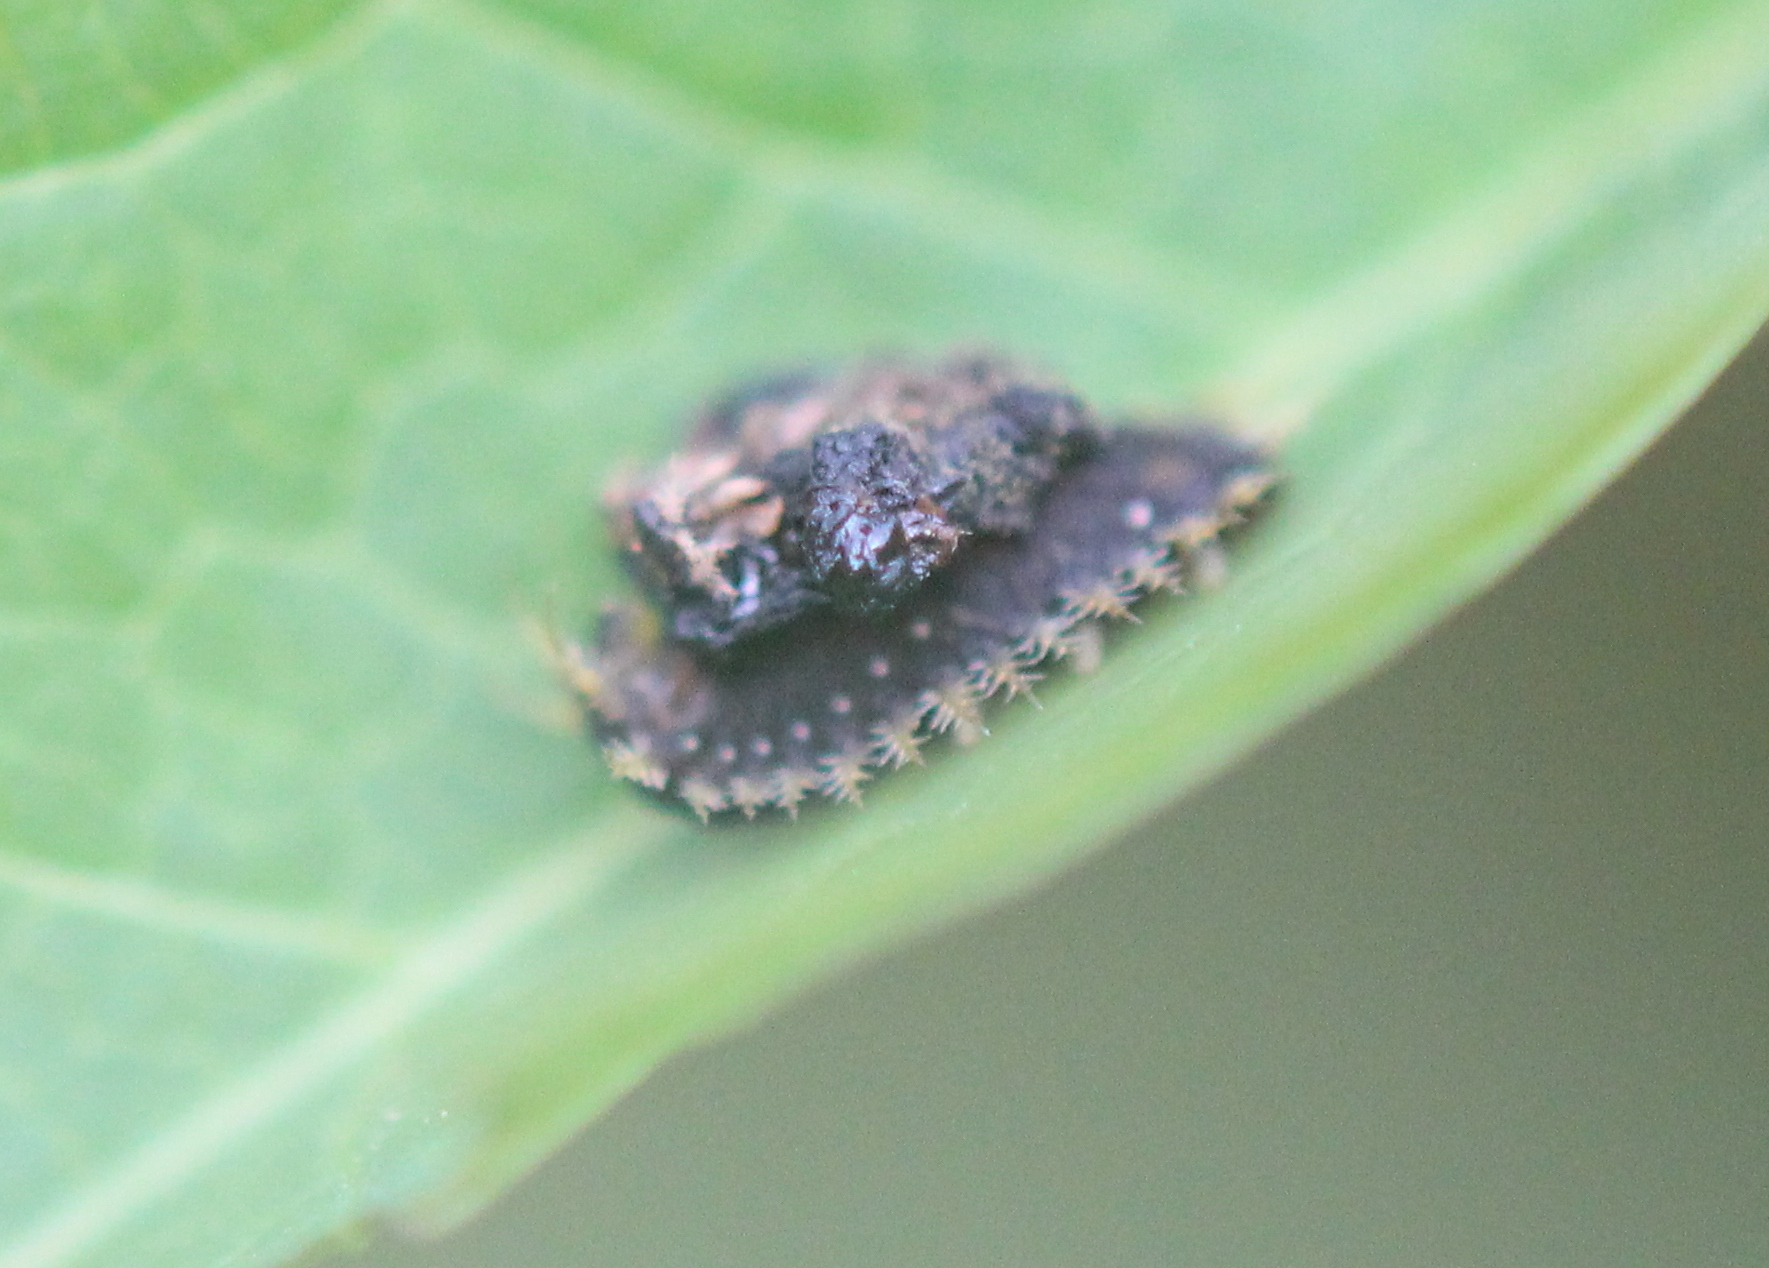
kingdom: Animalia
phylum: Arthropoda
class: Insecta
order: Coleoptera
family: Chrysomelidae
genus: Charidotella
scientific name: Charidotella sexpunctata
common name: Golden tortoise beetle
